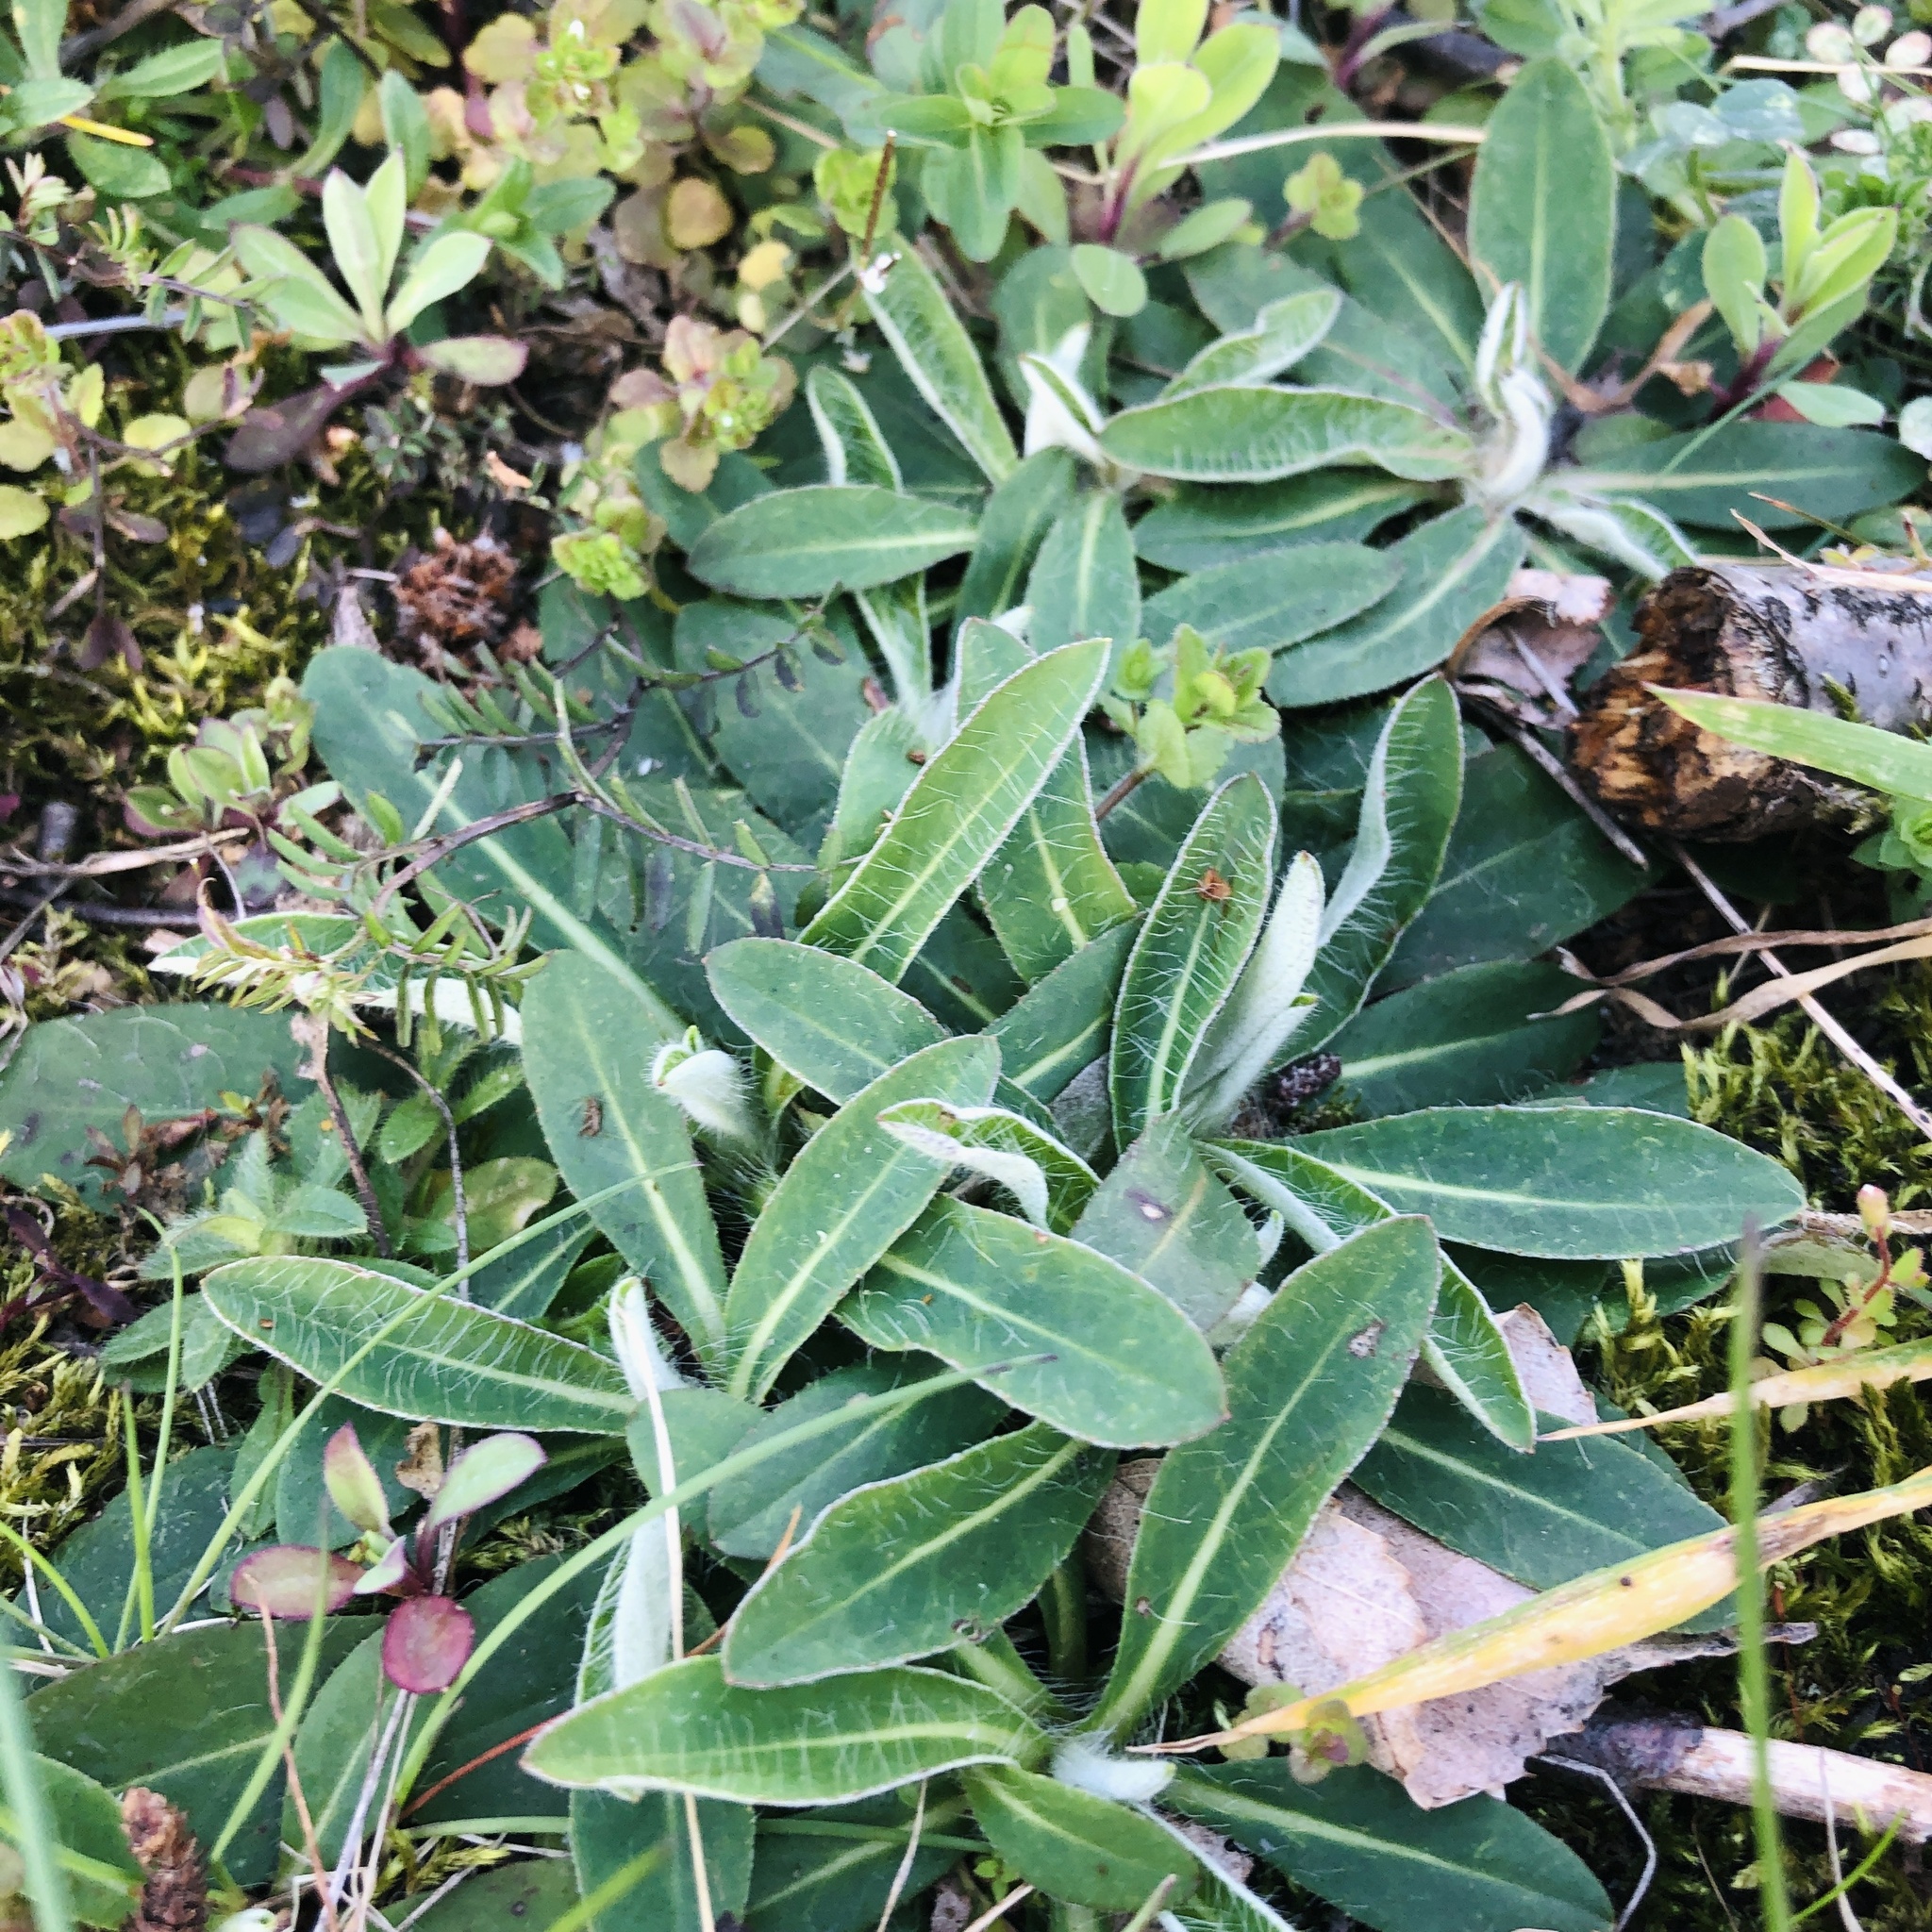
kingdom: Plantae
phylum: Tracheophyta
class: Magnoliopsida
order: Asterales
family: Asteraceae
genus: Pilosella
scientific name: Pilosella officinarum
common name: Mouse-ear hawkweed
